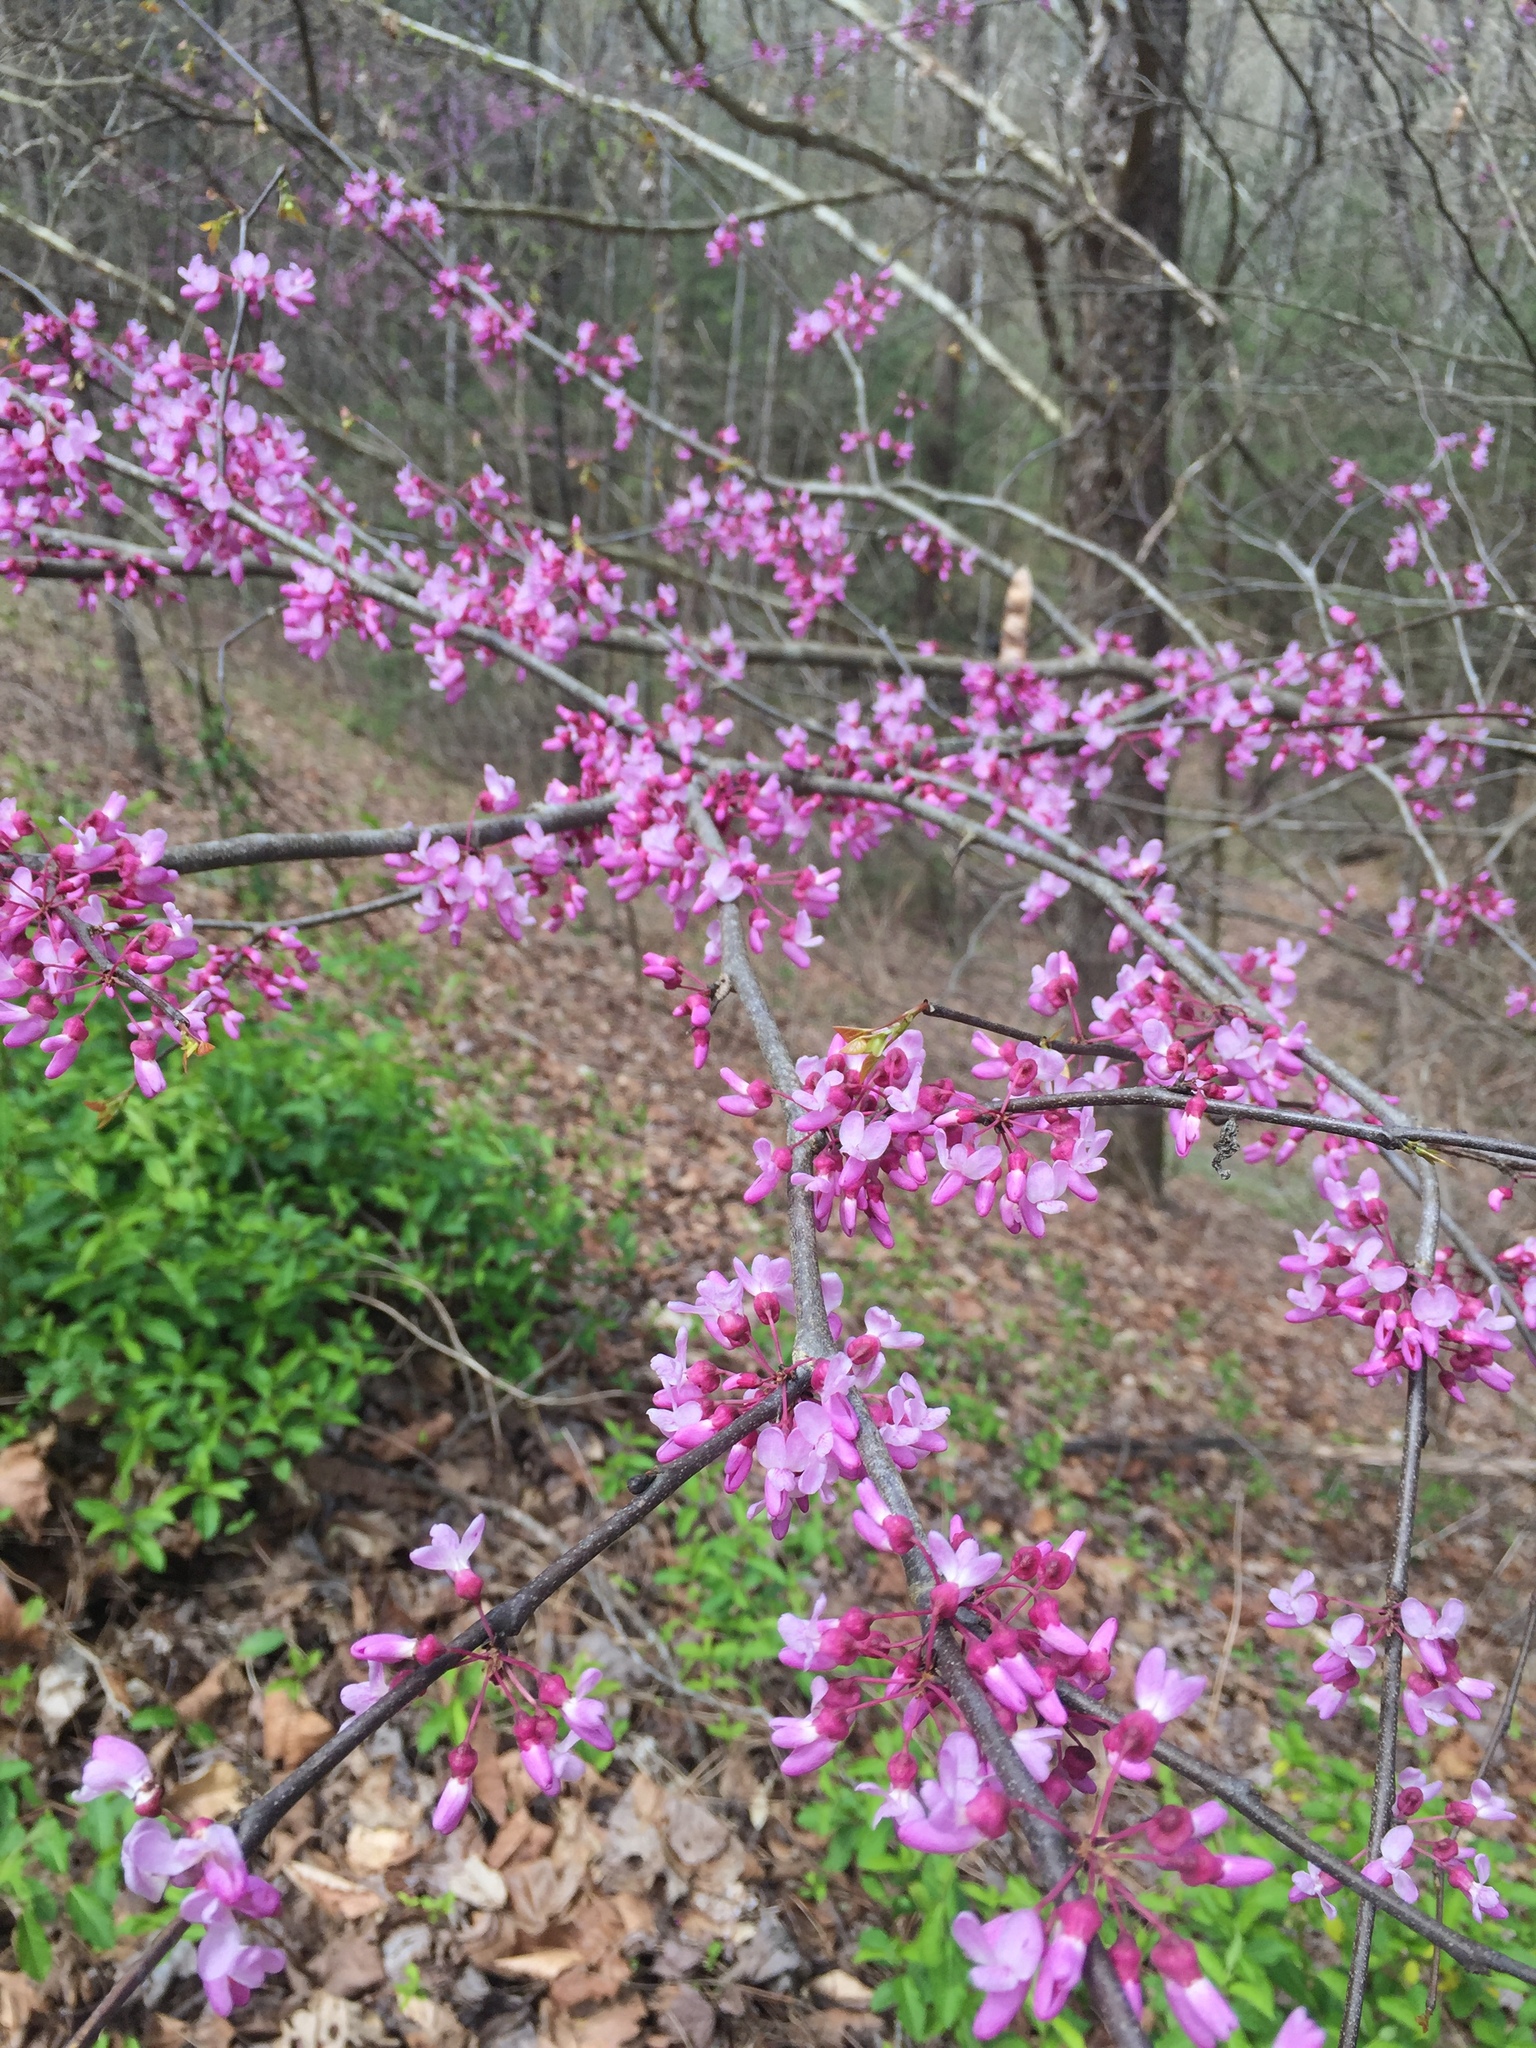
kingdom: Plantae
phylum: Tracheophyta
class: Magnoliopsida
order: Fabales
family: Fabaceae
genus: Cercis
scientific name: Cercis canadensis
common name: Eastern redbud
